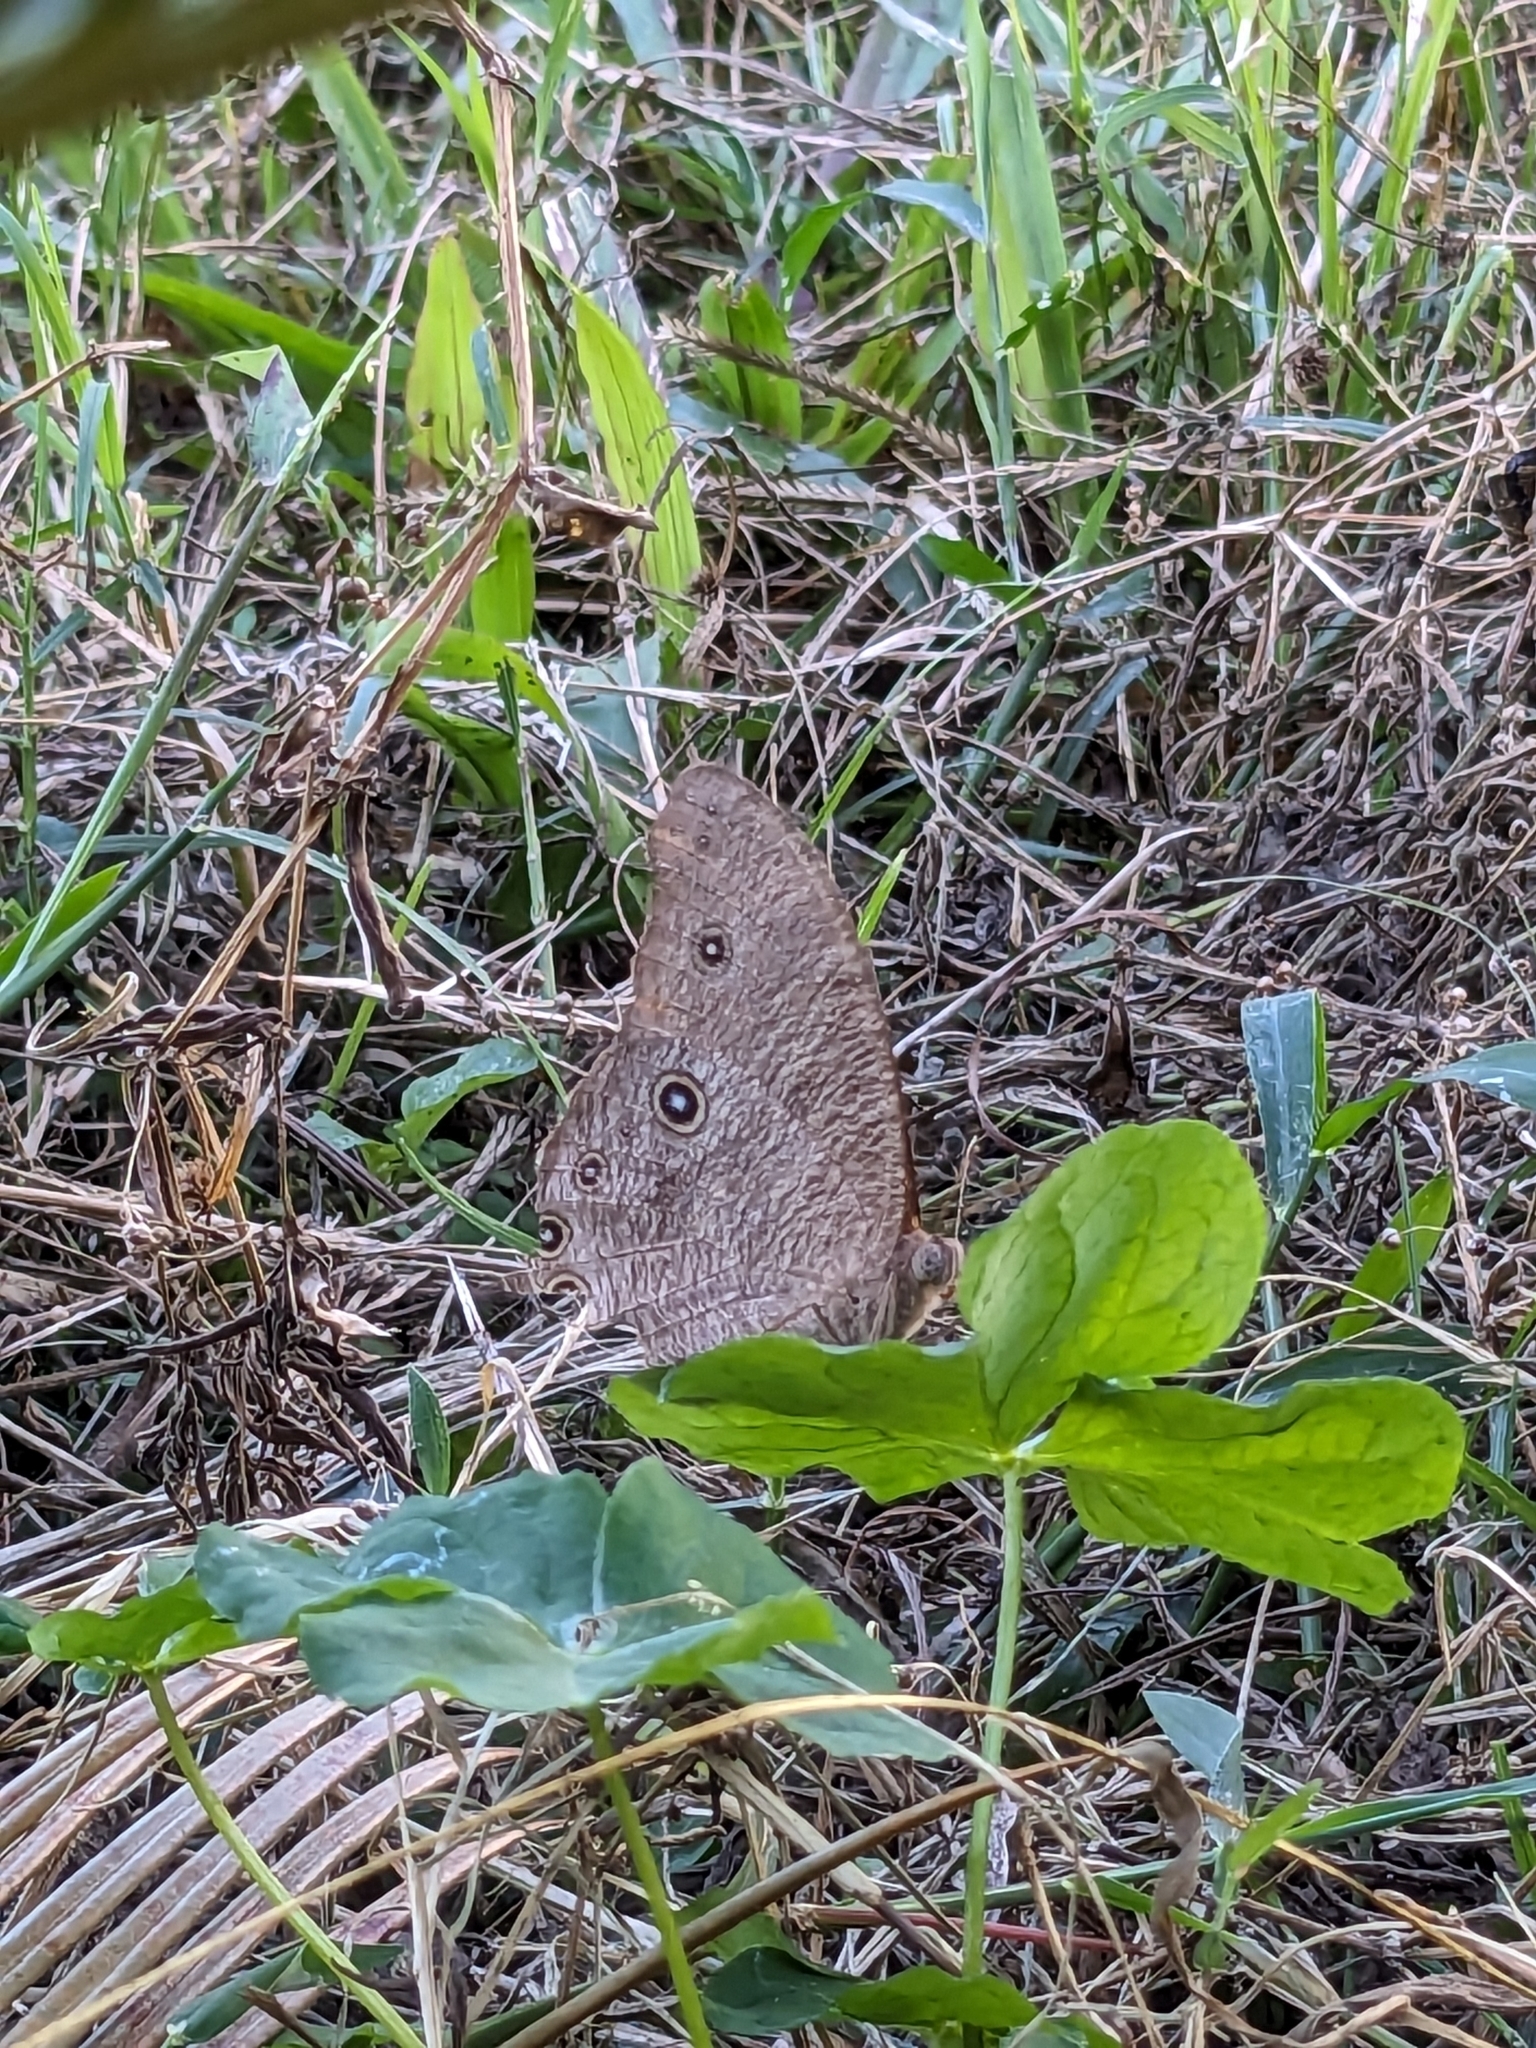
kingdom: Animalia
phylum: Arthropoda
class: Insecta
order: Lepidoptera
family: Nymphalidae
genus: Melanitis
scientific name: Melanitis leda
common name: Twilight brown
